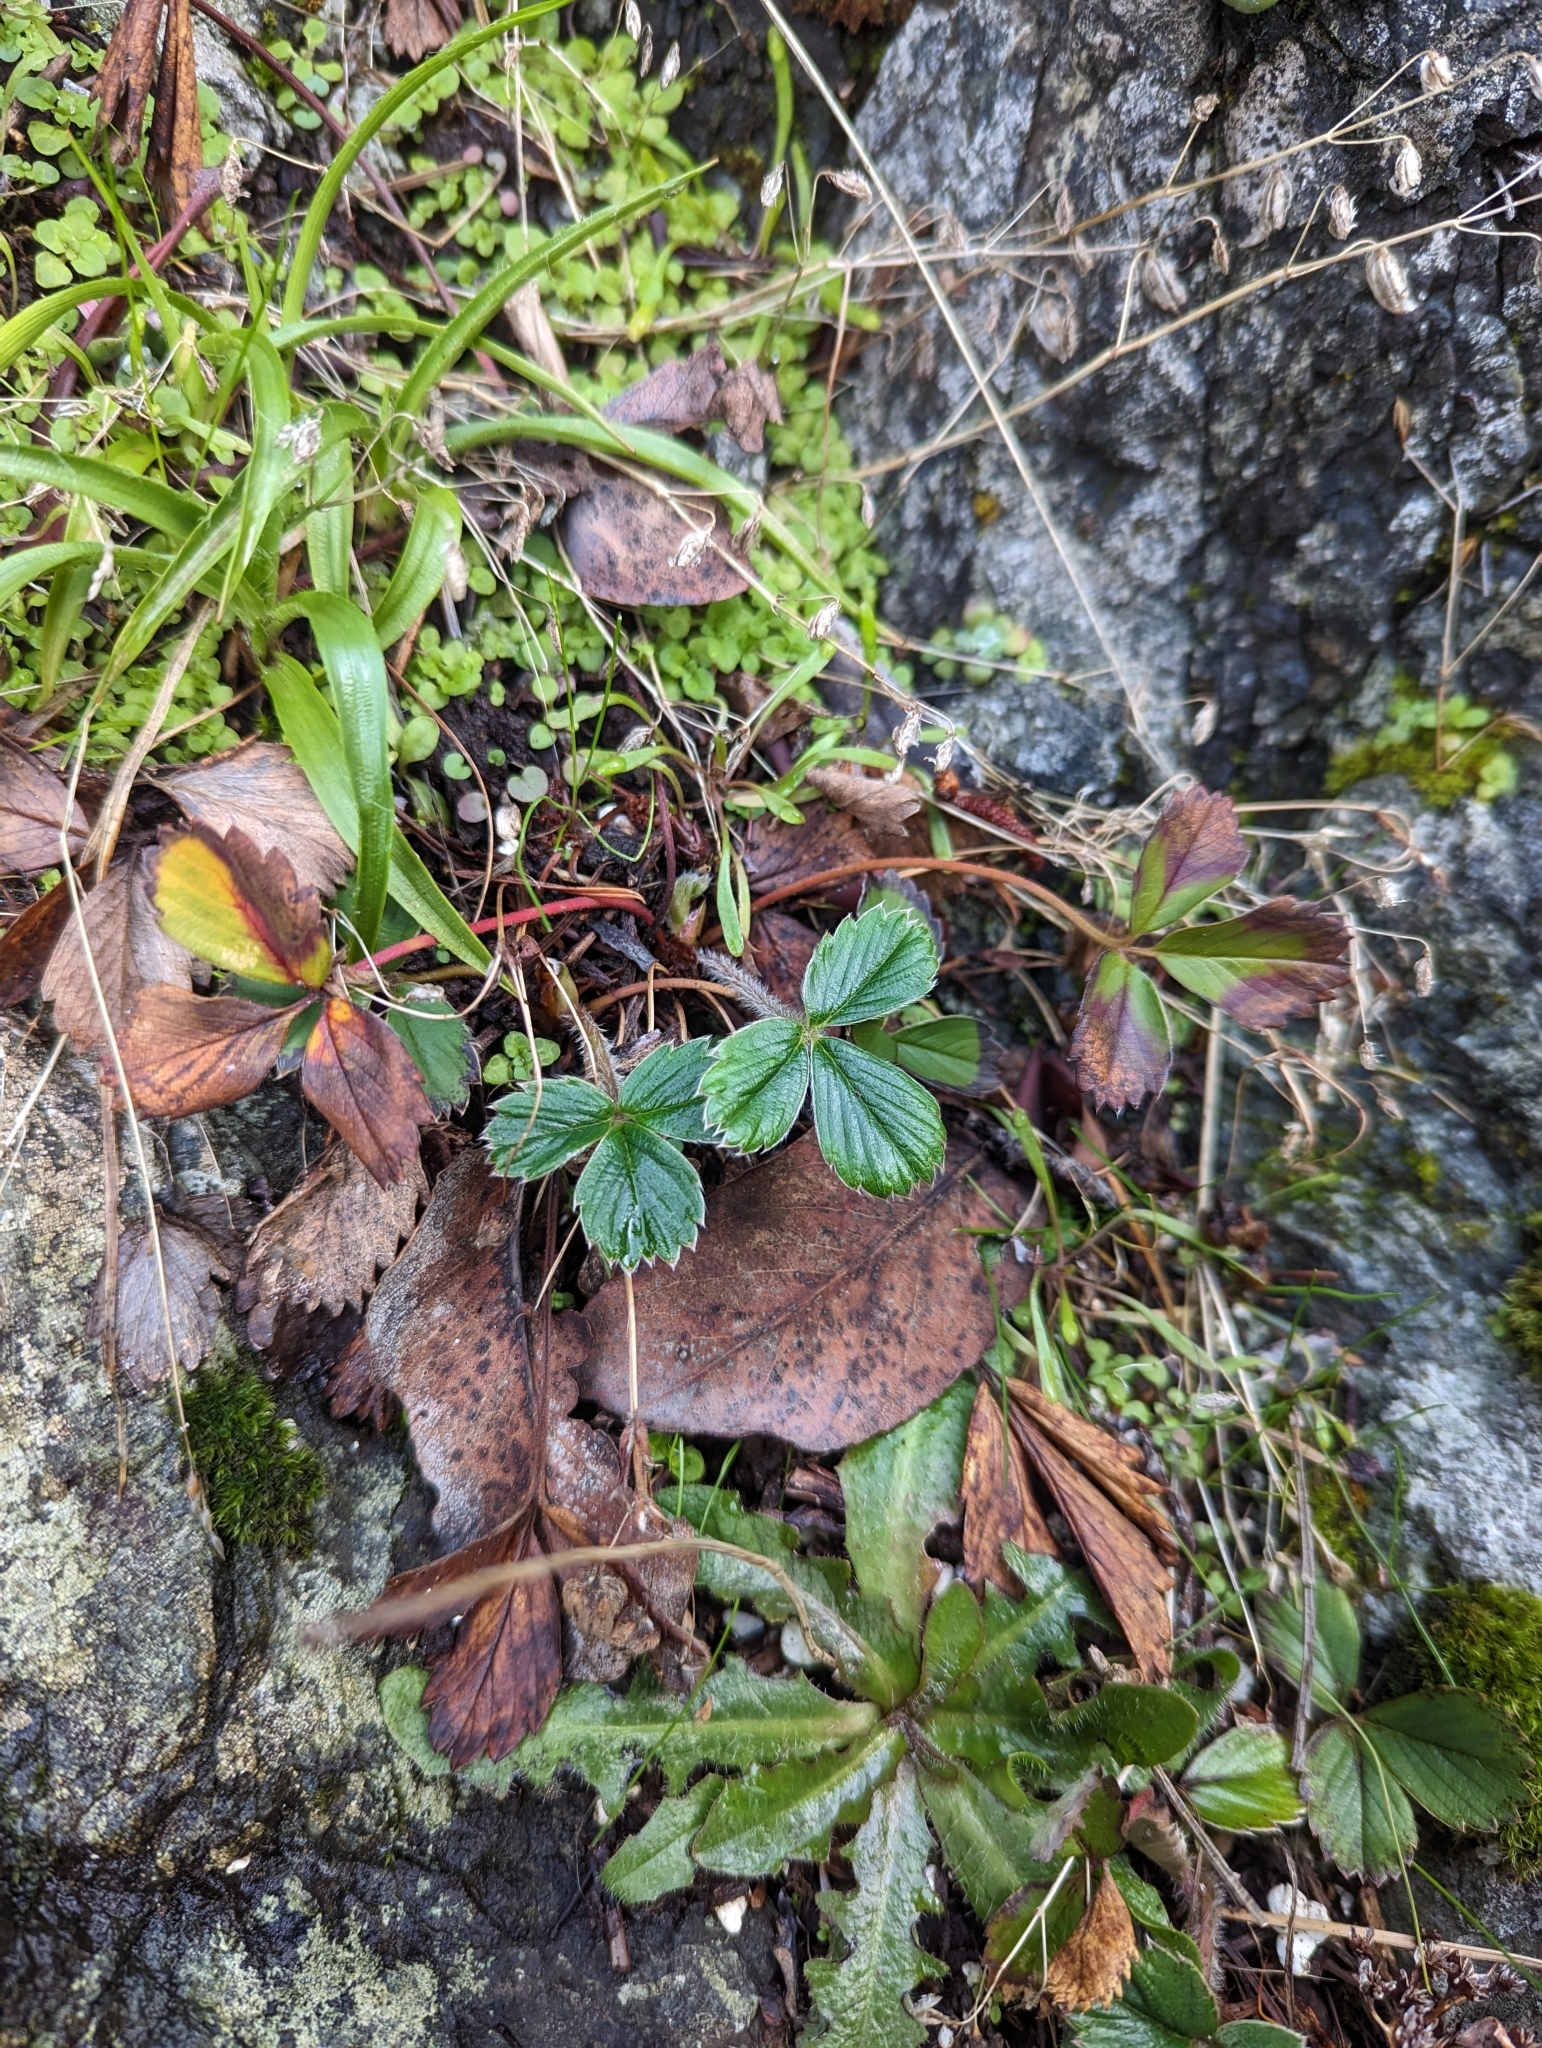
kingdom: Plantae
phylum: Tracheophyta
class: Magnoliopsida
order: Rosales
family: Rosaceae
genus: Fragaria
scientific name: Fragaria chiloensis
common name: Beach strawberry
